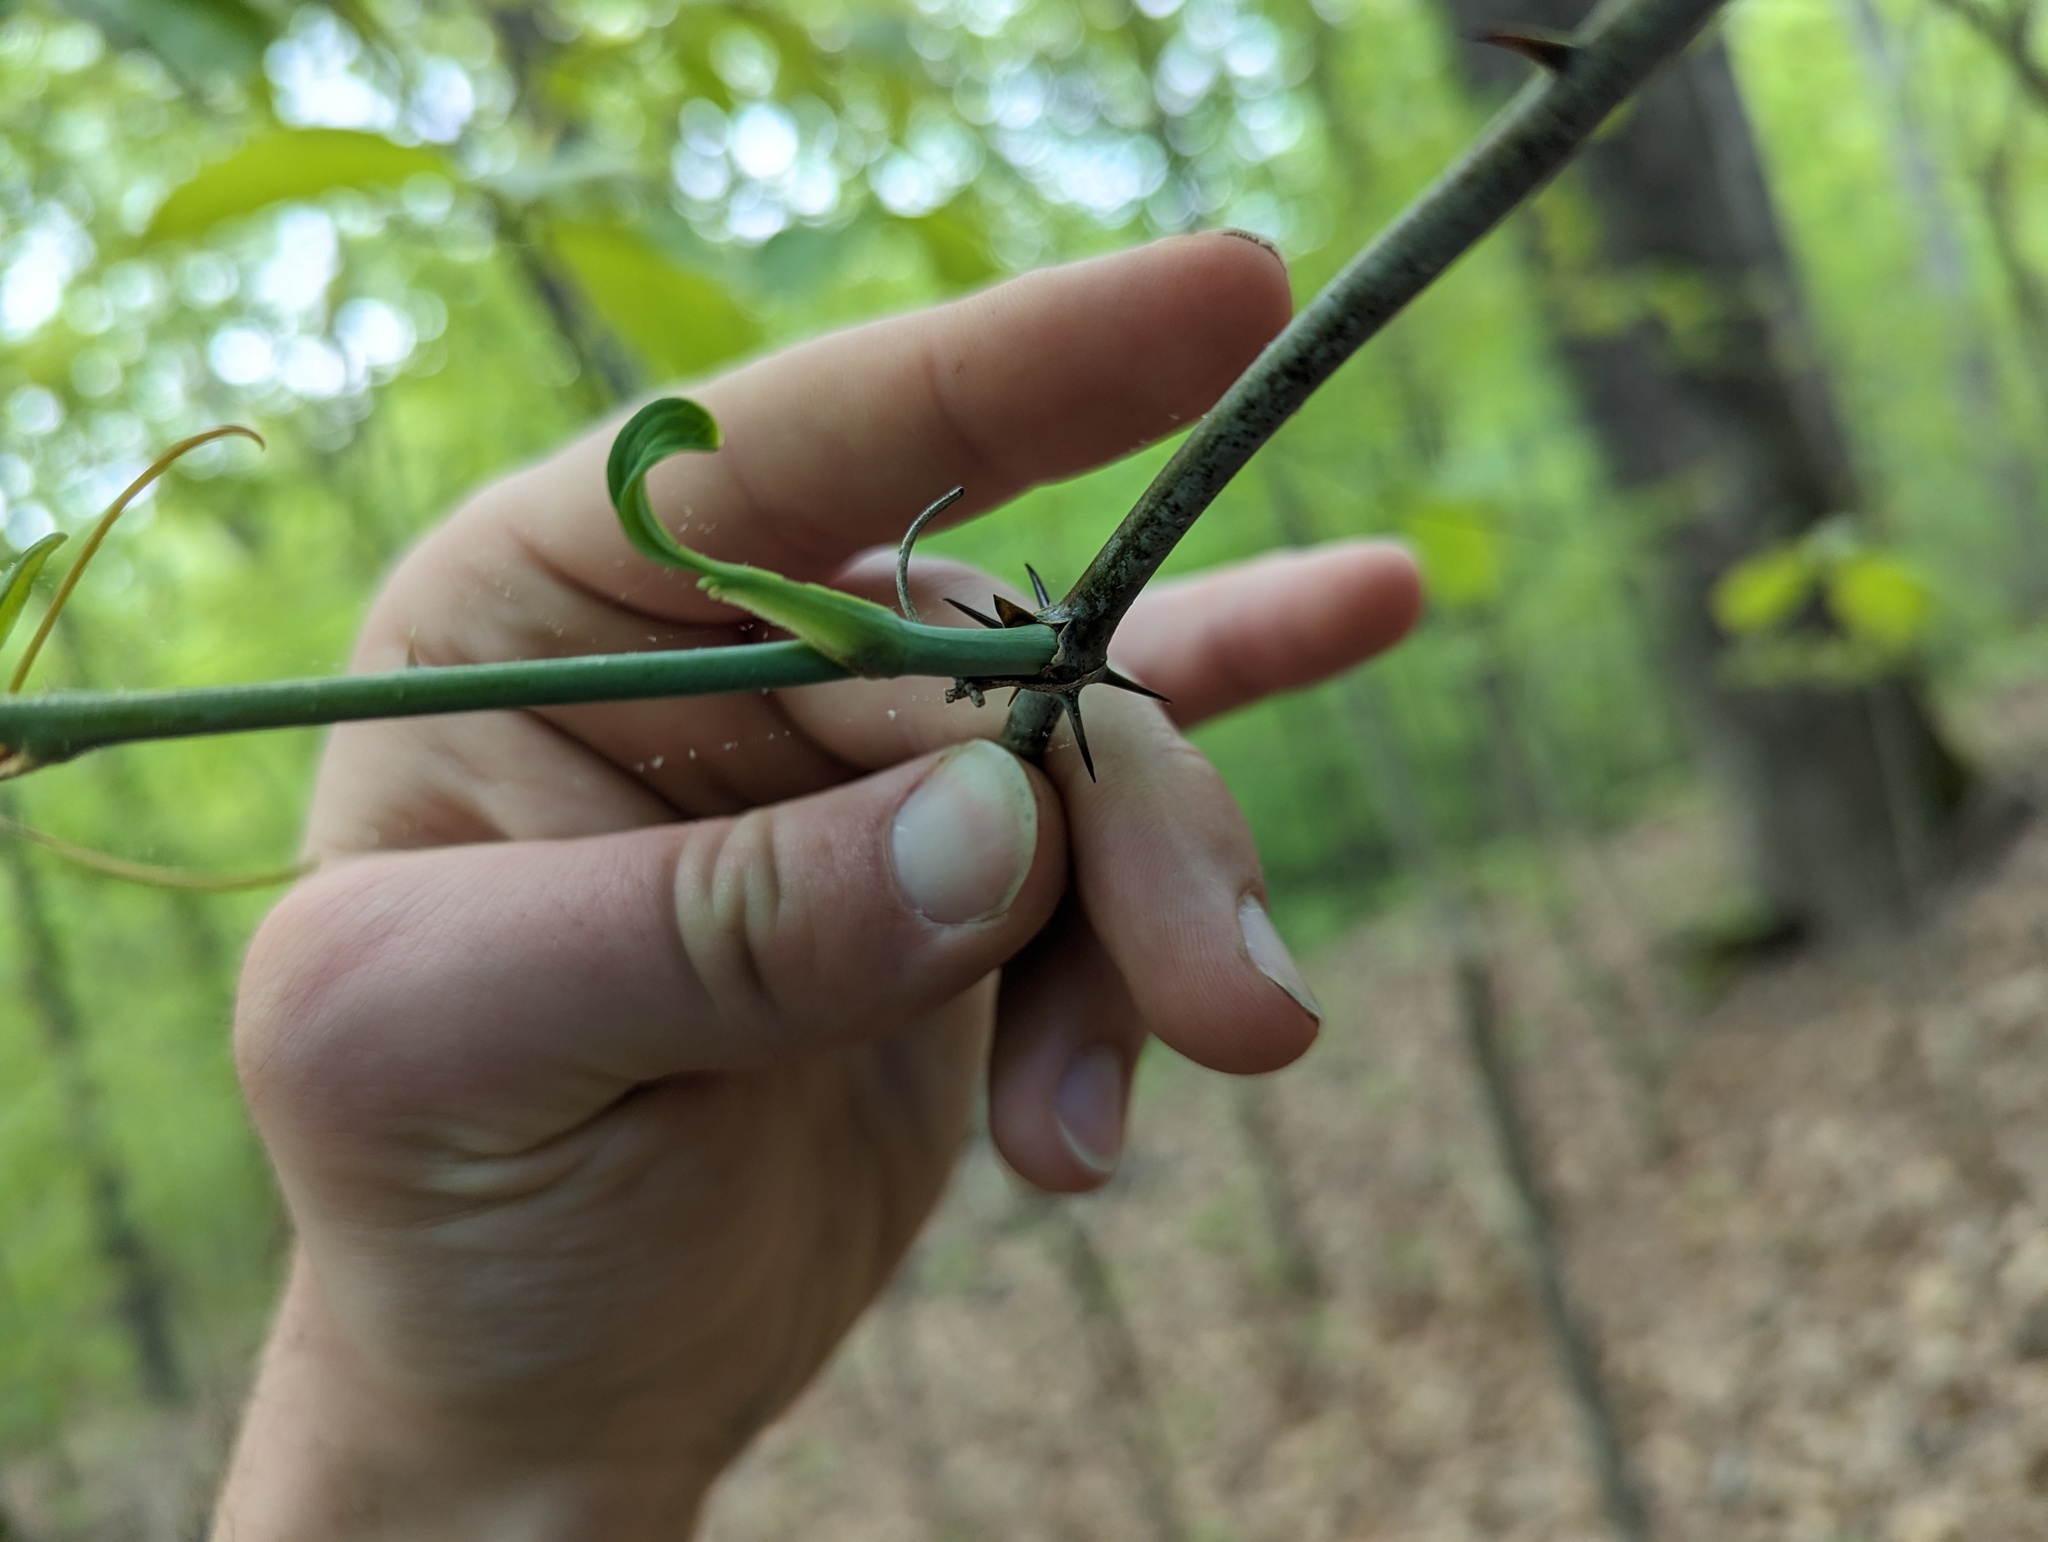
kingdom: Plantae
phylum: Tracheophyta
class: Liliopsida
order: Liliales
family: Smilacaceae
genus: Smilax
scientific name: Smilax glauca
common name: Cat greenbrier
